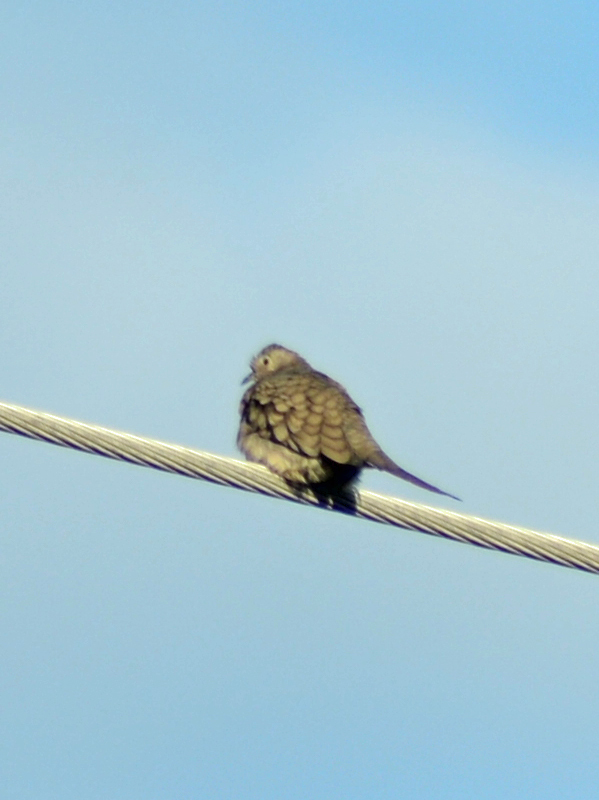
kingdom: Animalia
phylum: Chordata
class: Aves
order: Columbiformes
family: Columbidae
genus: Columbina
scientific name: Columbina inca
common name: Inca dove
